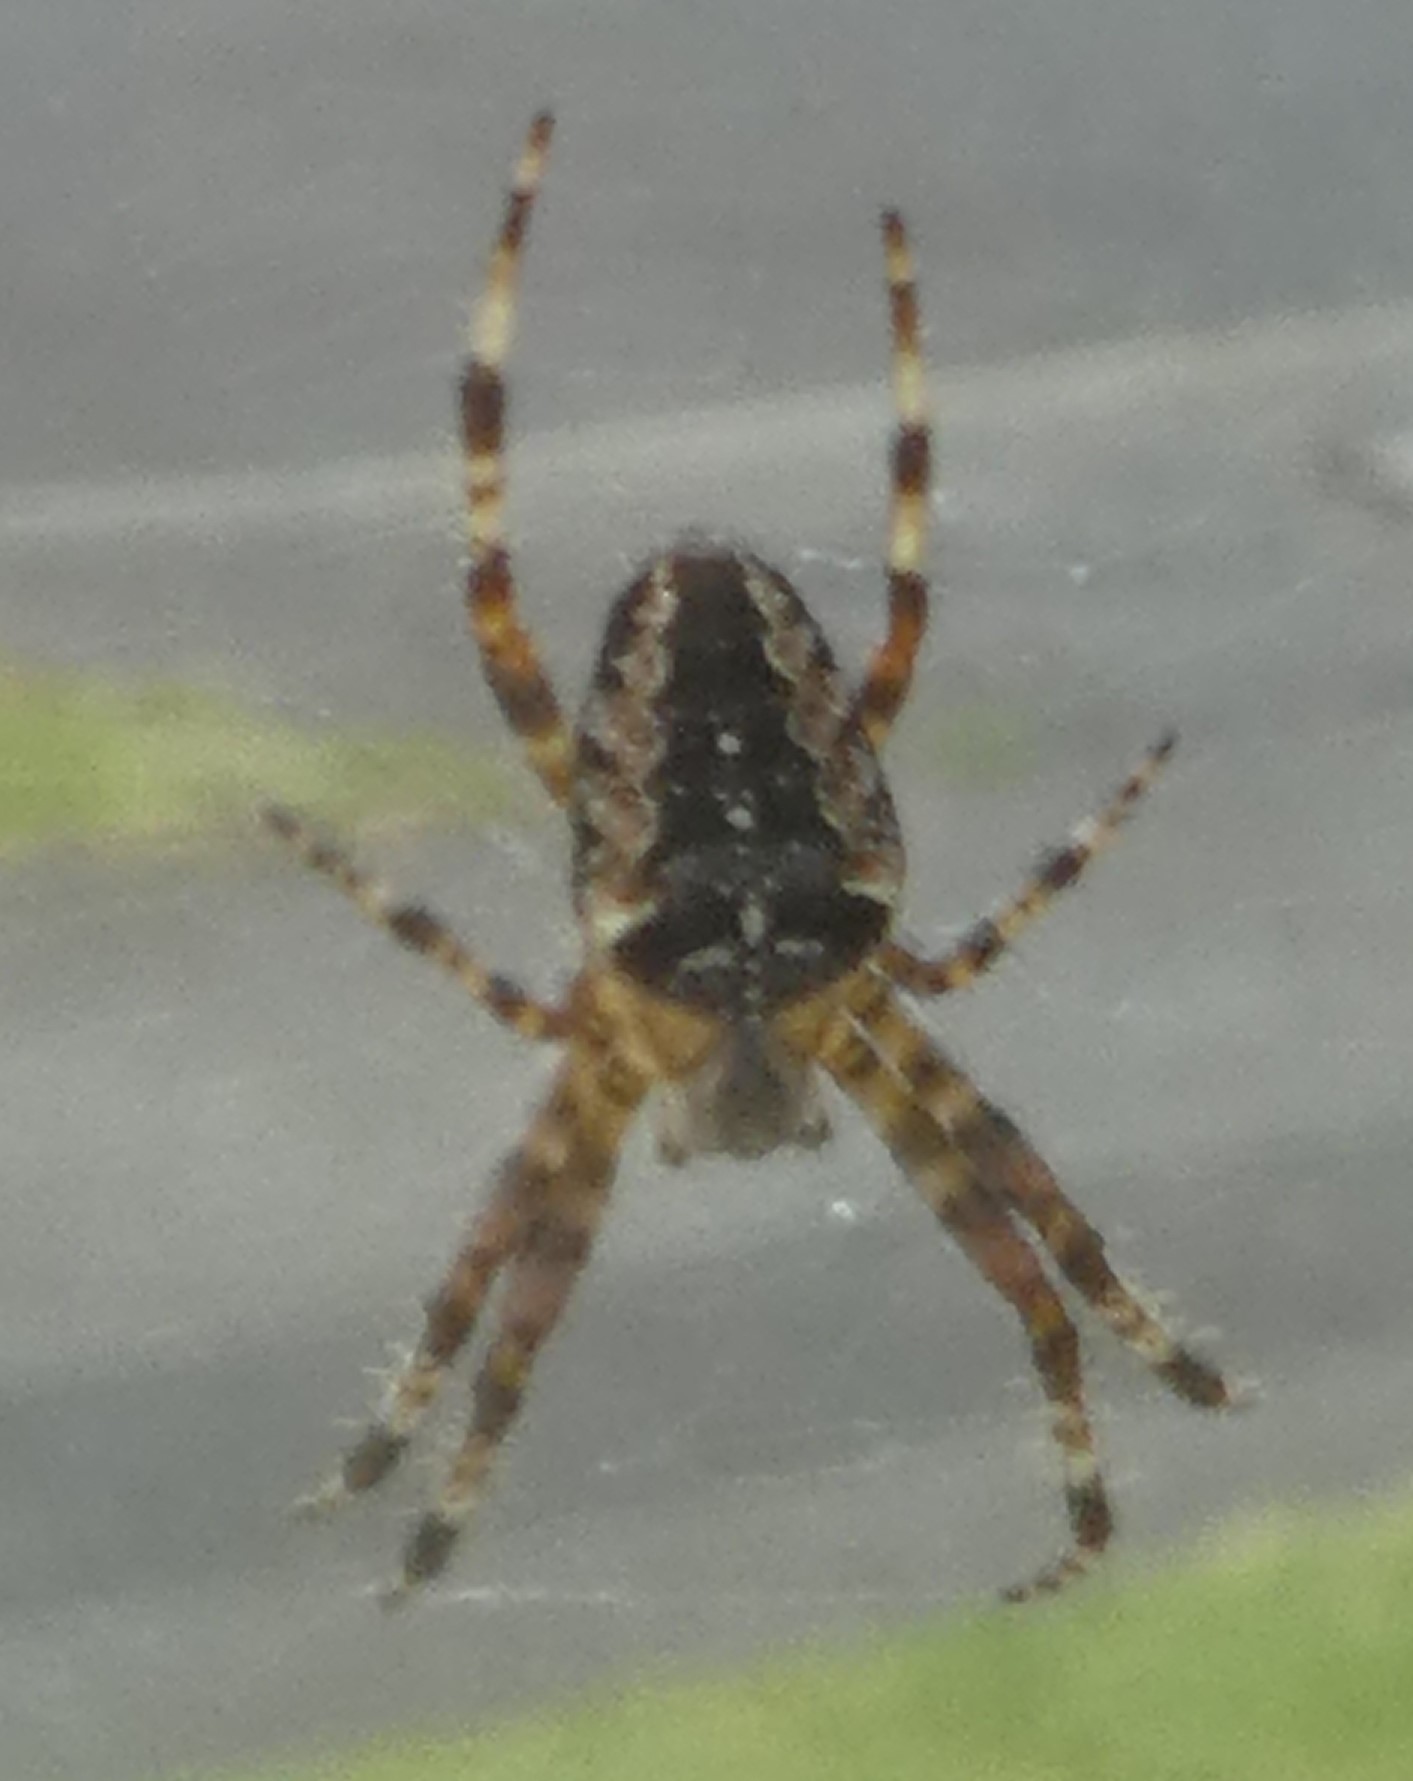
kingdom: Animalia
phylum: Arthropoda
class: Arachnida
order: Araneae
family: Araneidae
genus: Araneus
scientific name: Araneus diadematus
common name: Cross orbweaver
